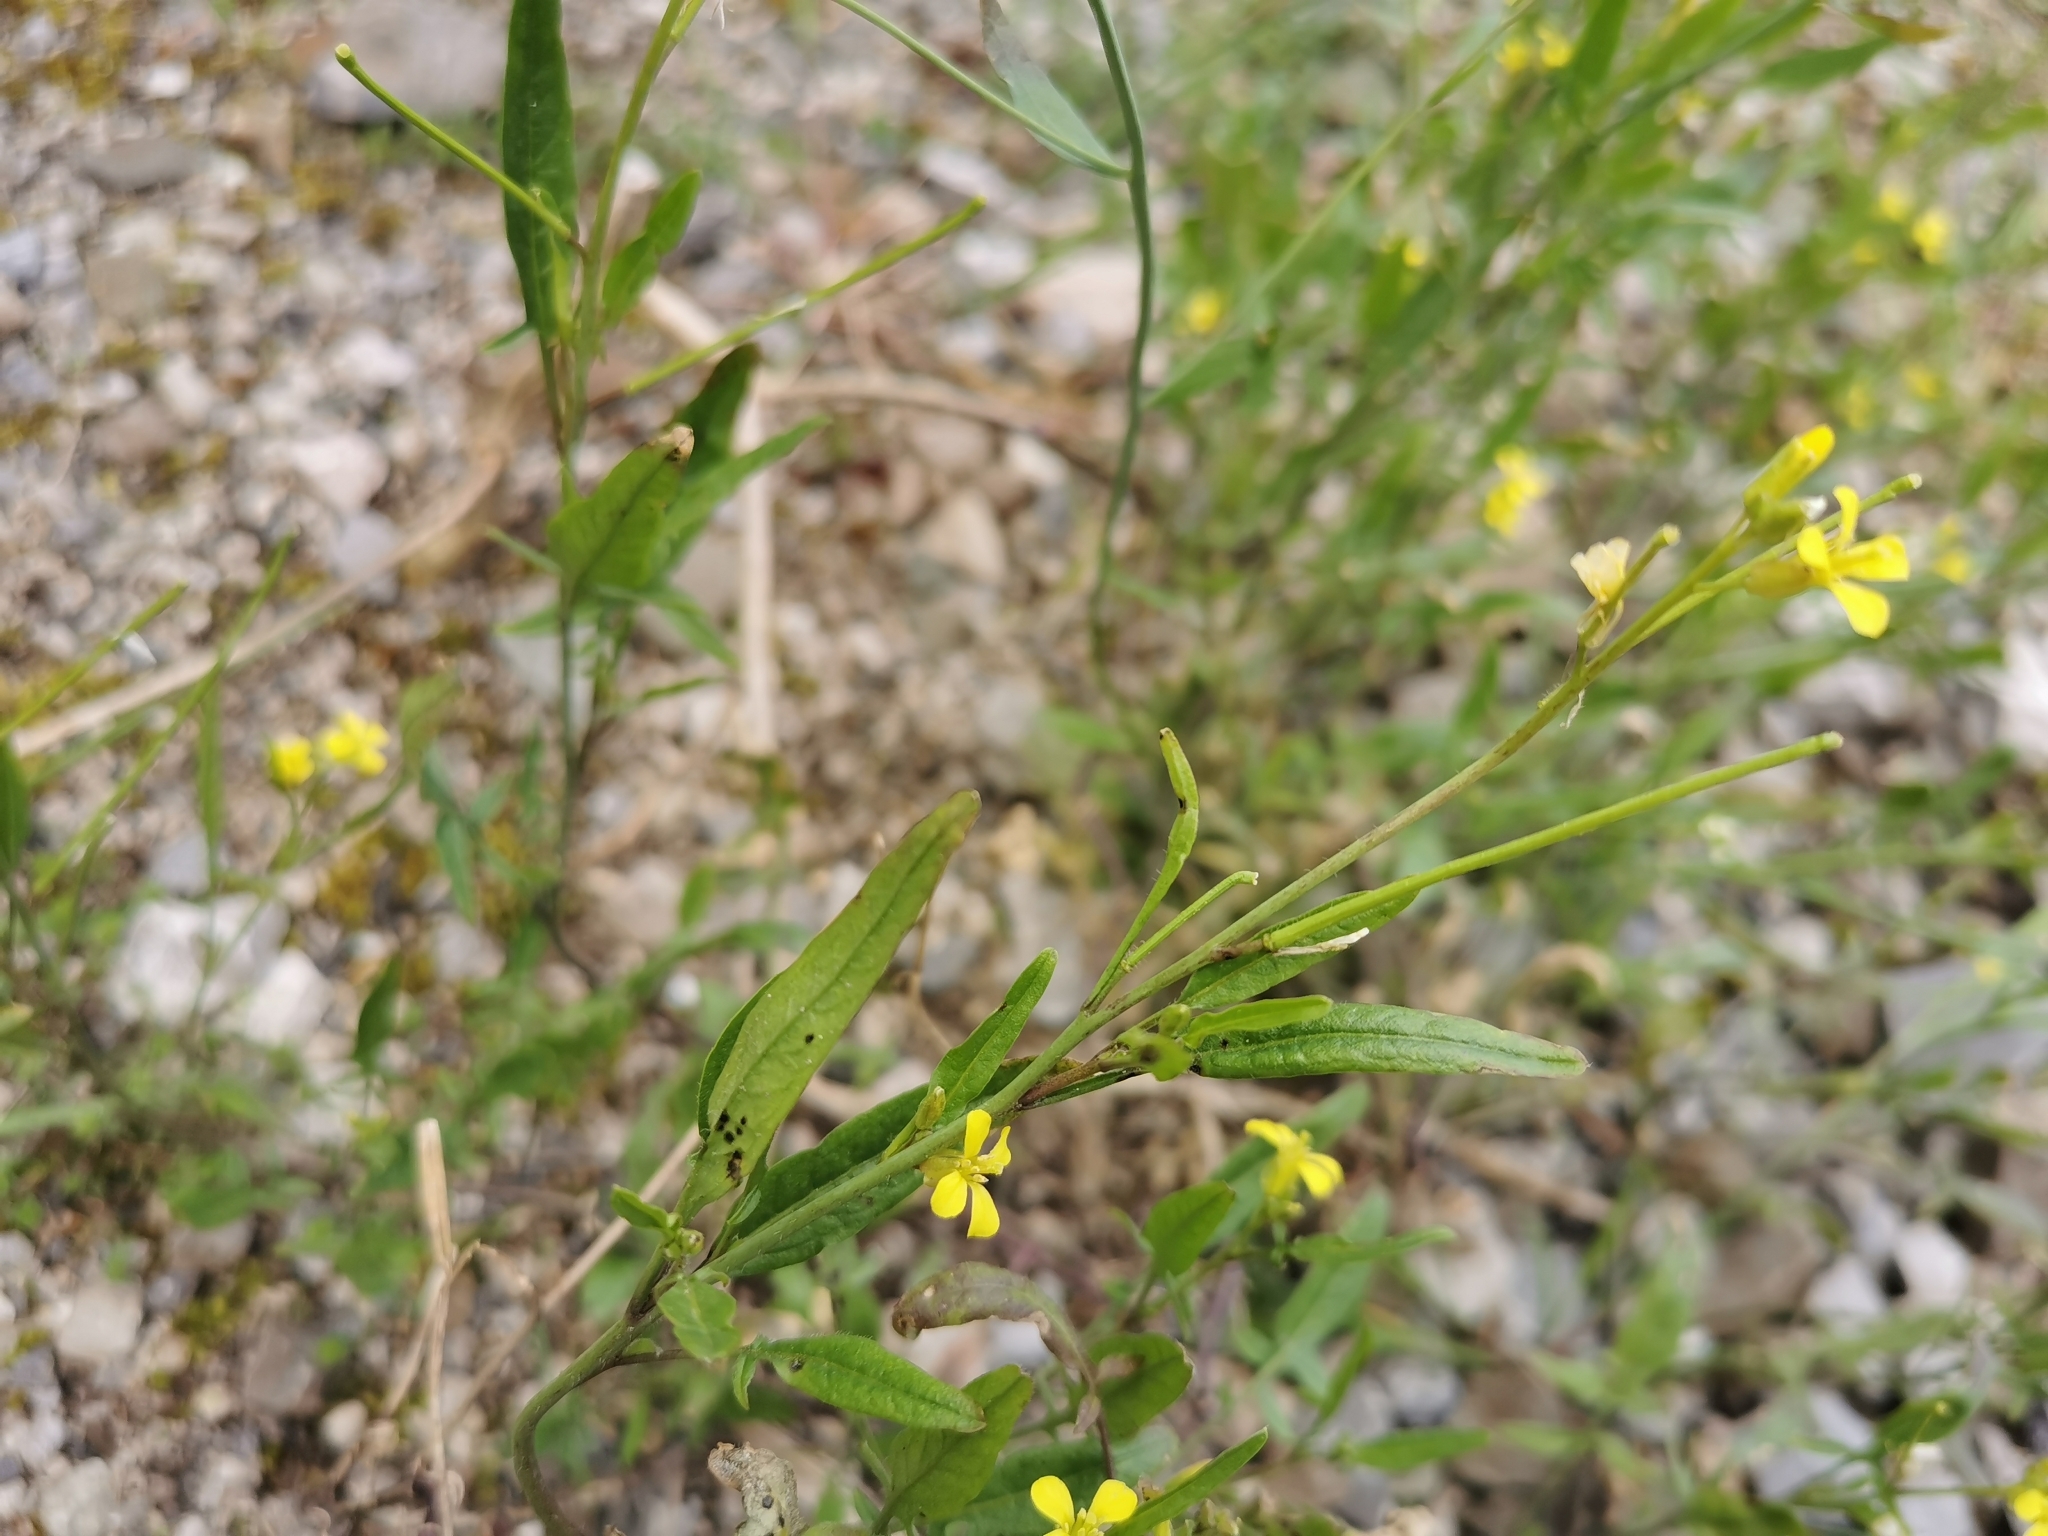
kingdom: Plantae
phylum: Tracheophyta
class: Magnoliopsida
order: Brassicales
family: Brassicaceae
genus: Sisymbrium
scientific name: Sisymbrium orientale
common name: Eastern rocket
